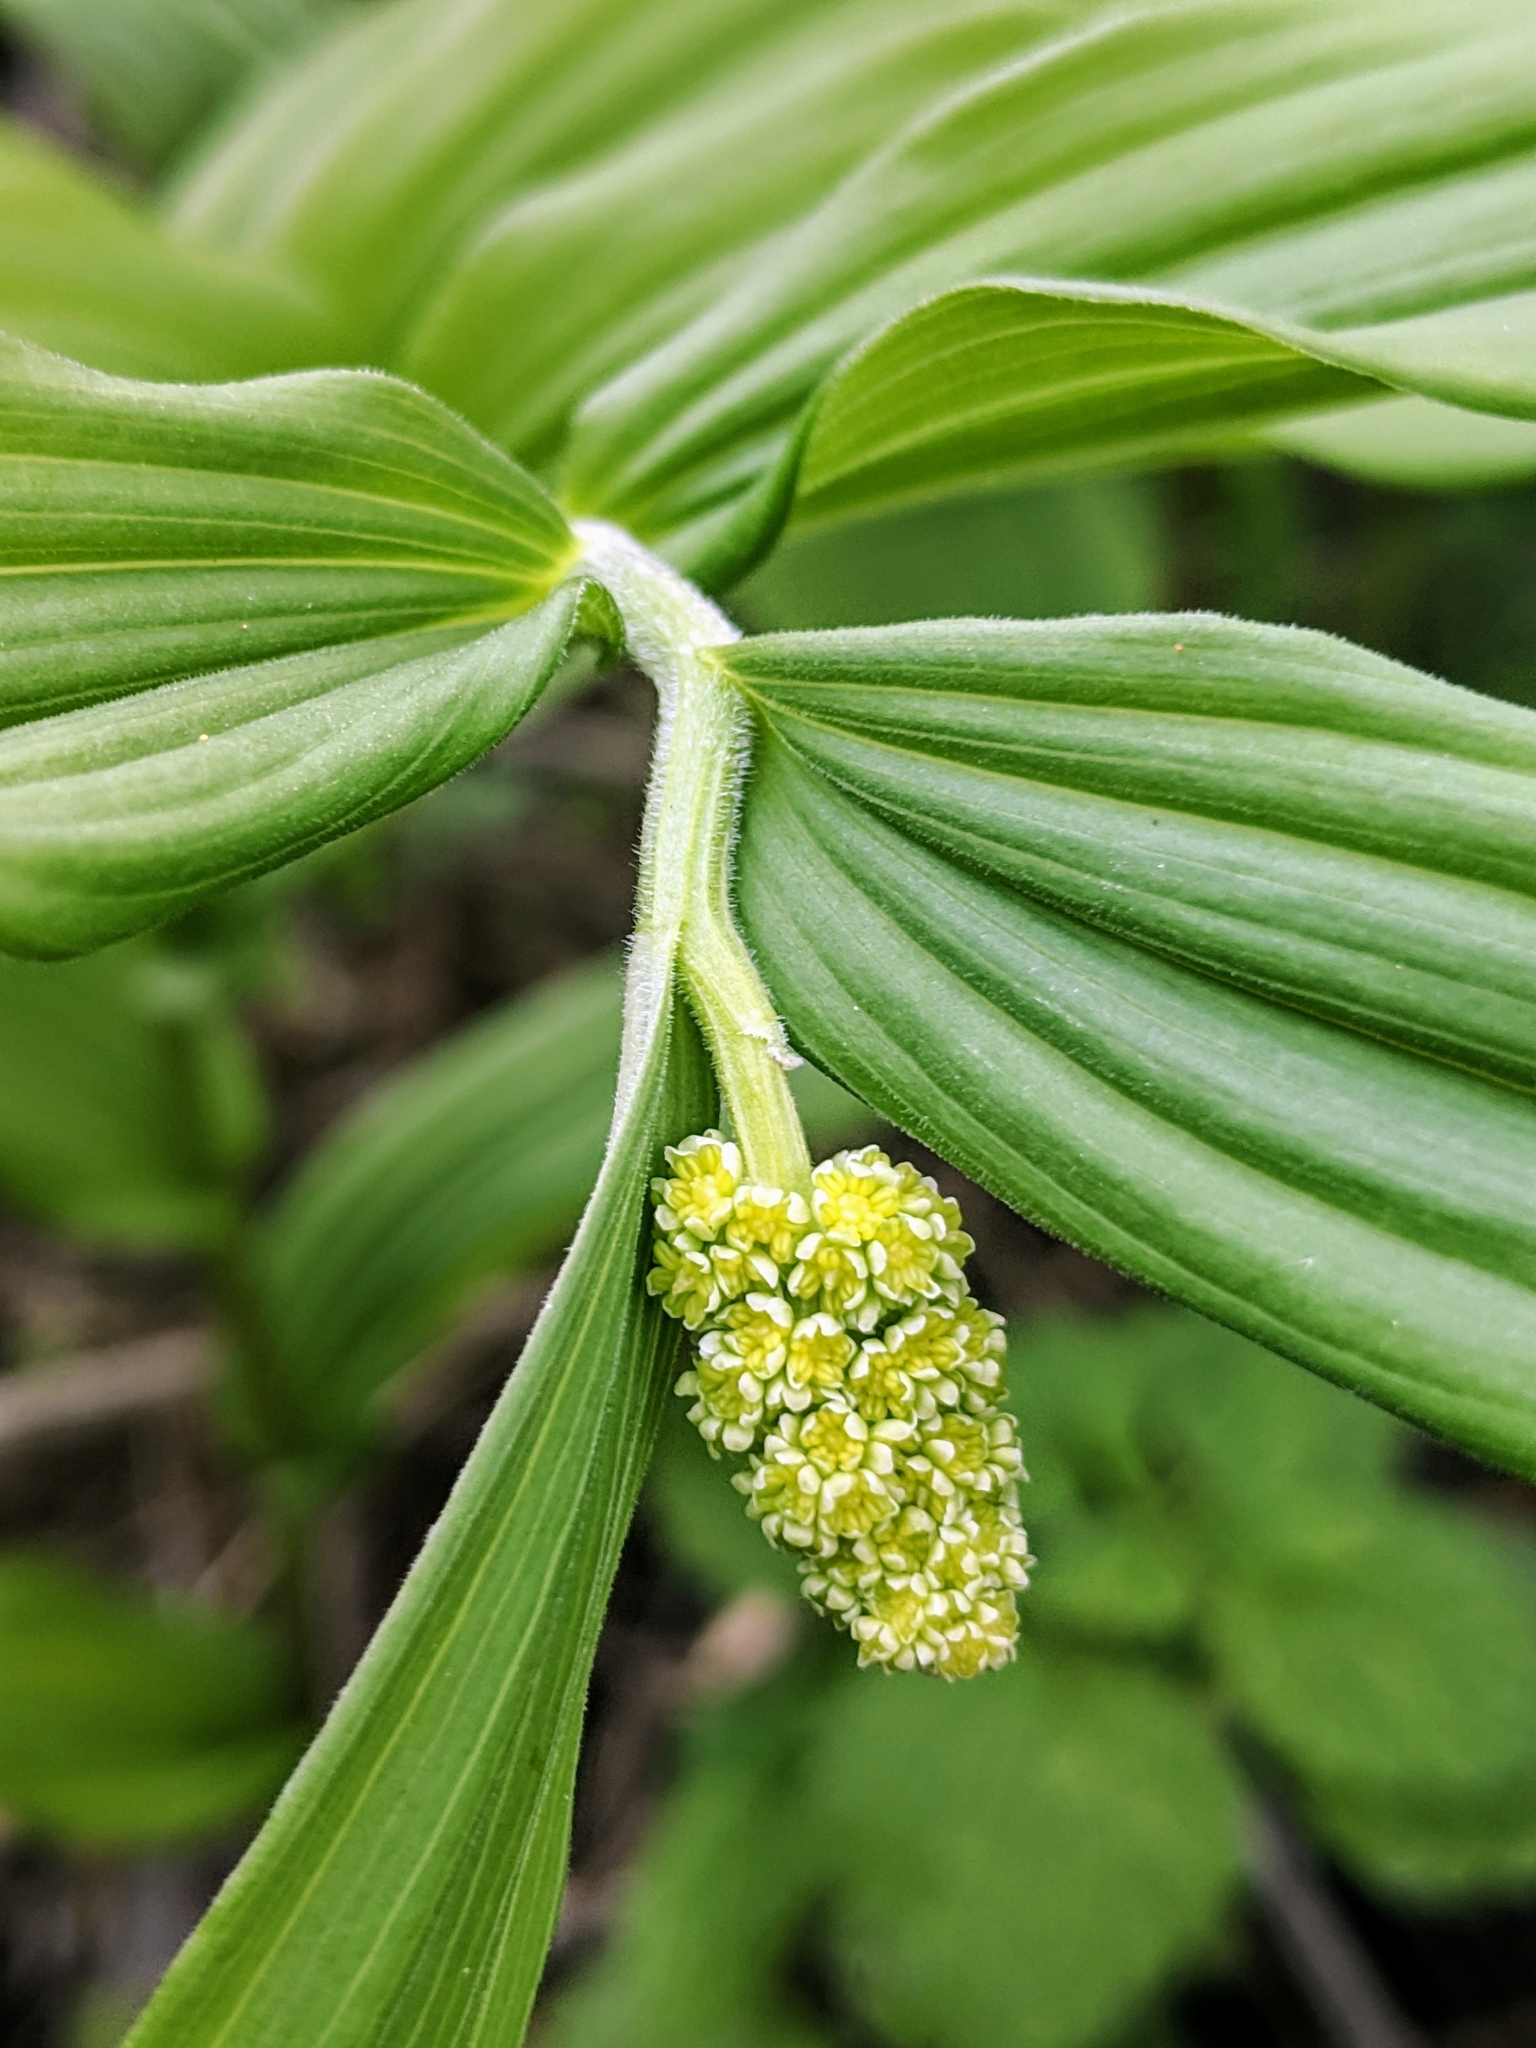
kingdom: Plantae
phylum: Tracheophyta
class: Liliopsida
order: Asparagales
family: Asparagaceae
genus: Maianthemum
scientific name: Maianthemum racemosum
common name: False spikenard
